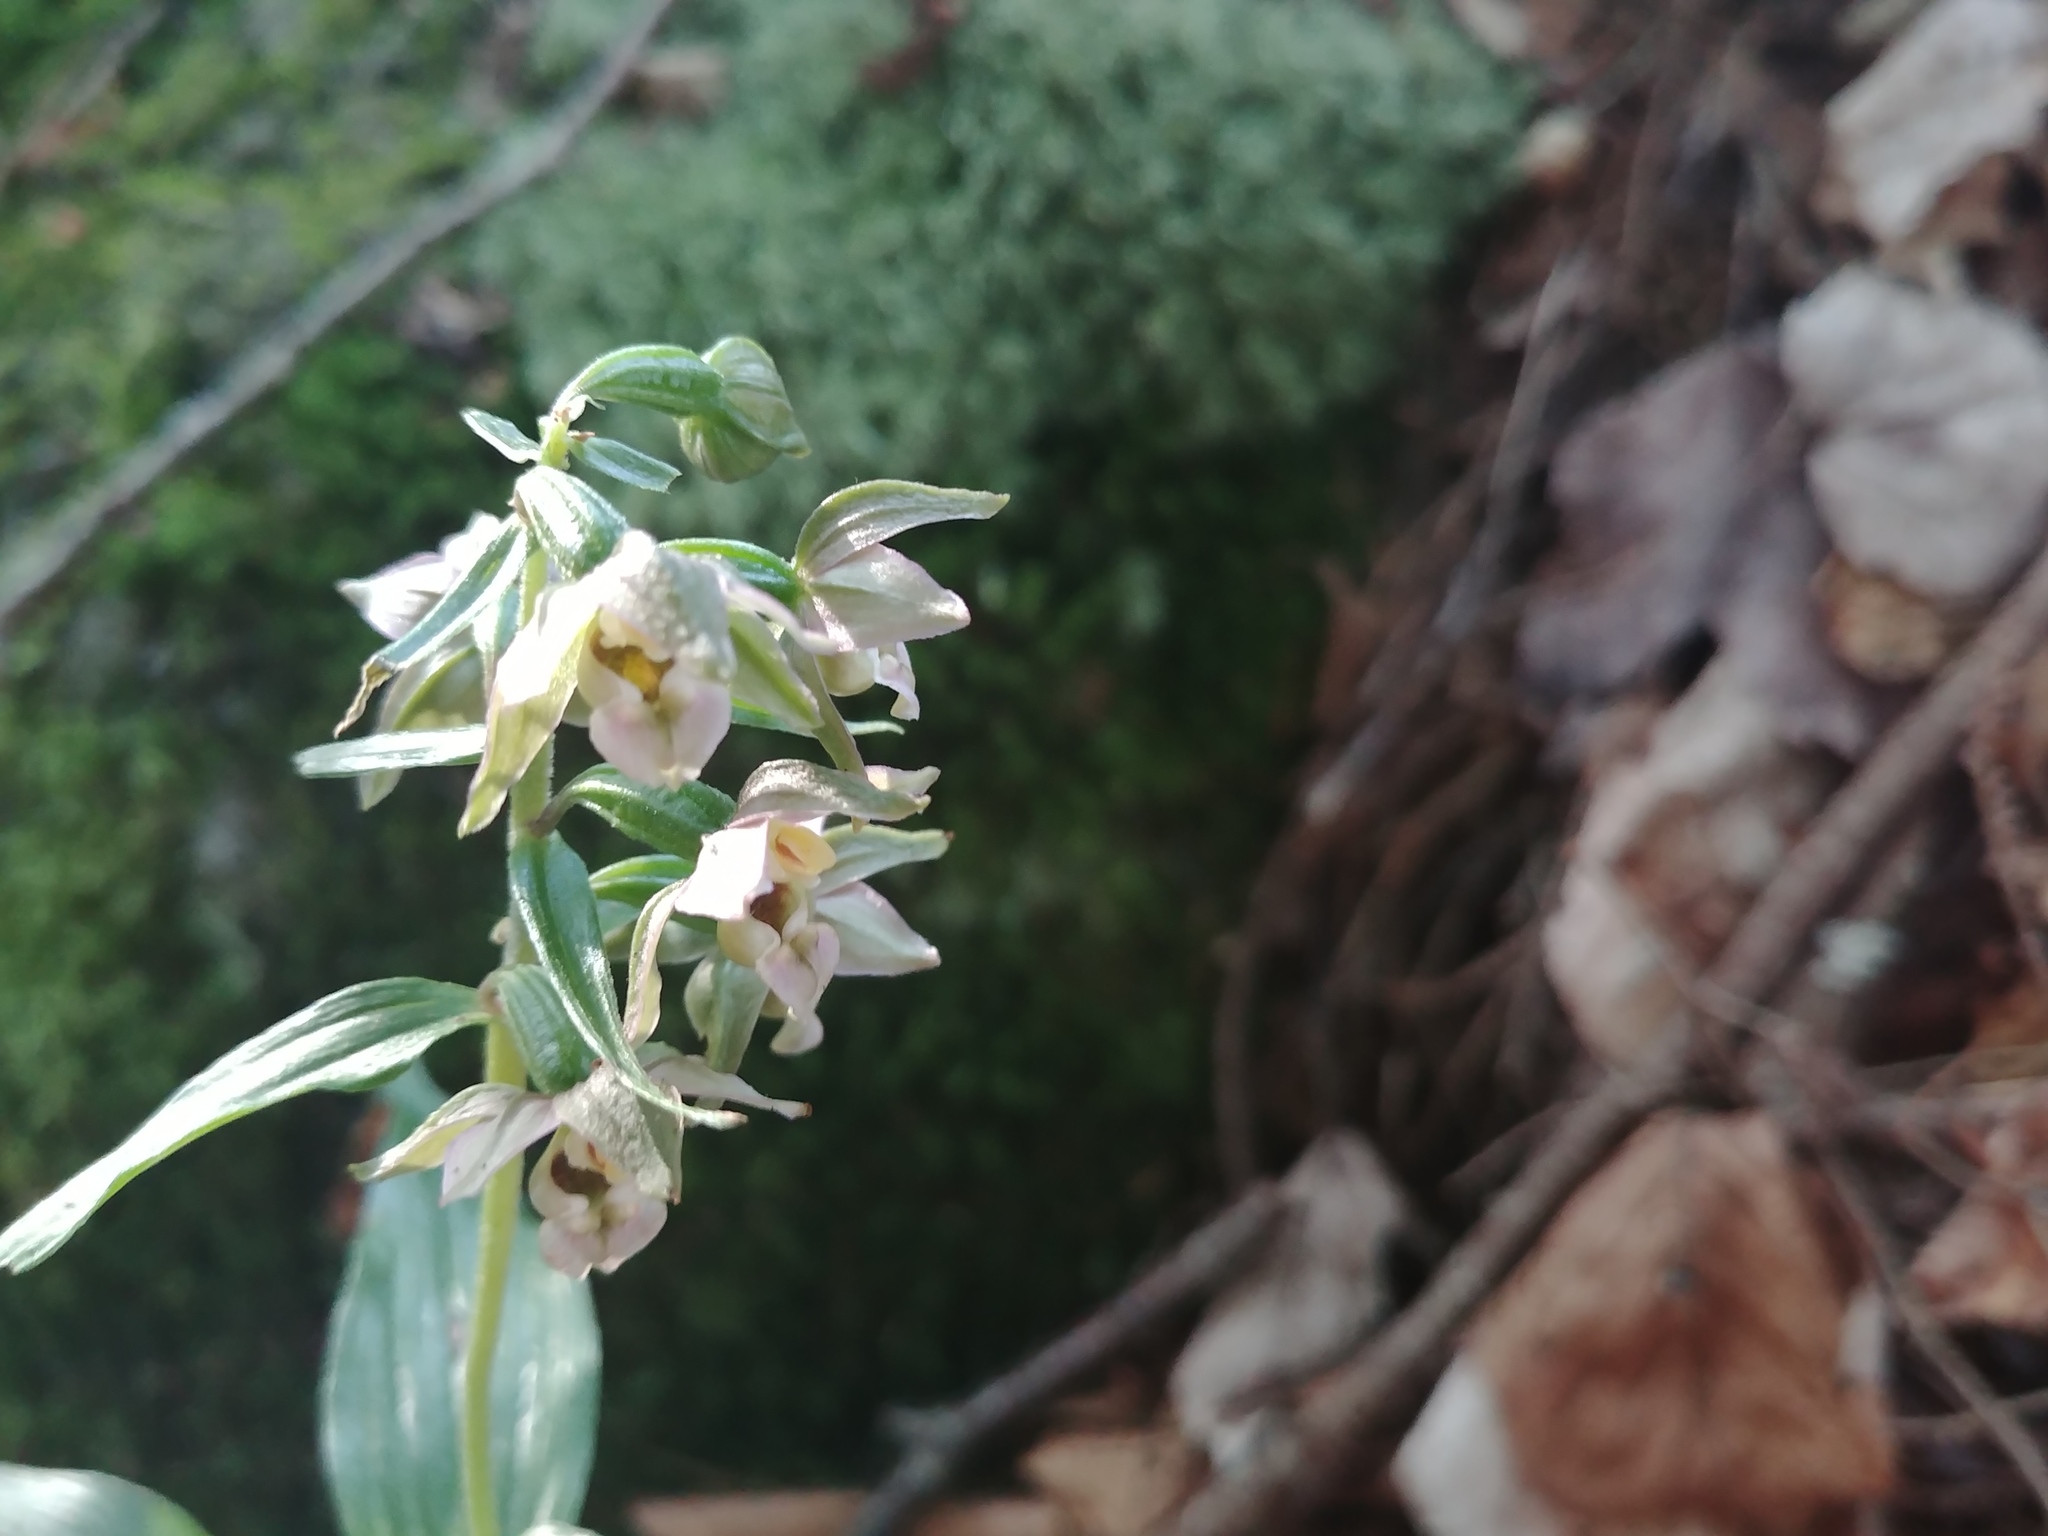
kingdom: Plantae
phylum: Tracheophyta
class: Liliopsida
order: Asparagales
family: Orchidaceae
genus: Epipactis
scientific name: Epipactis helleborine
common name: Broad-leaved helleborine
